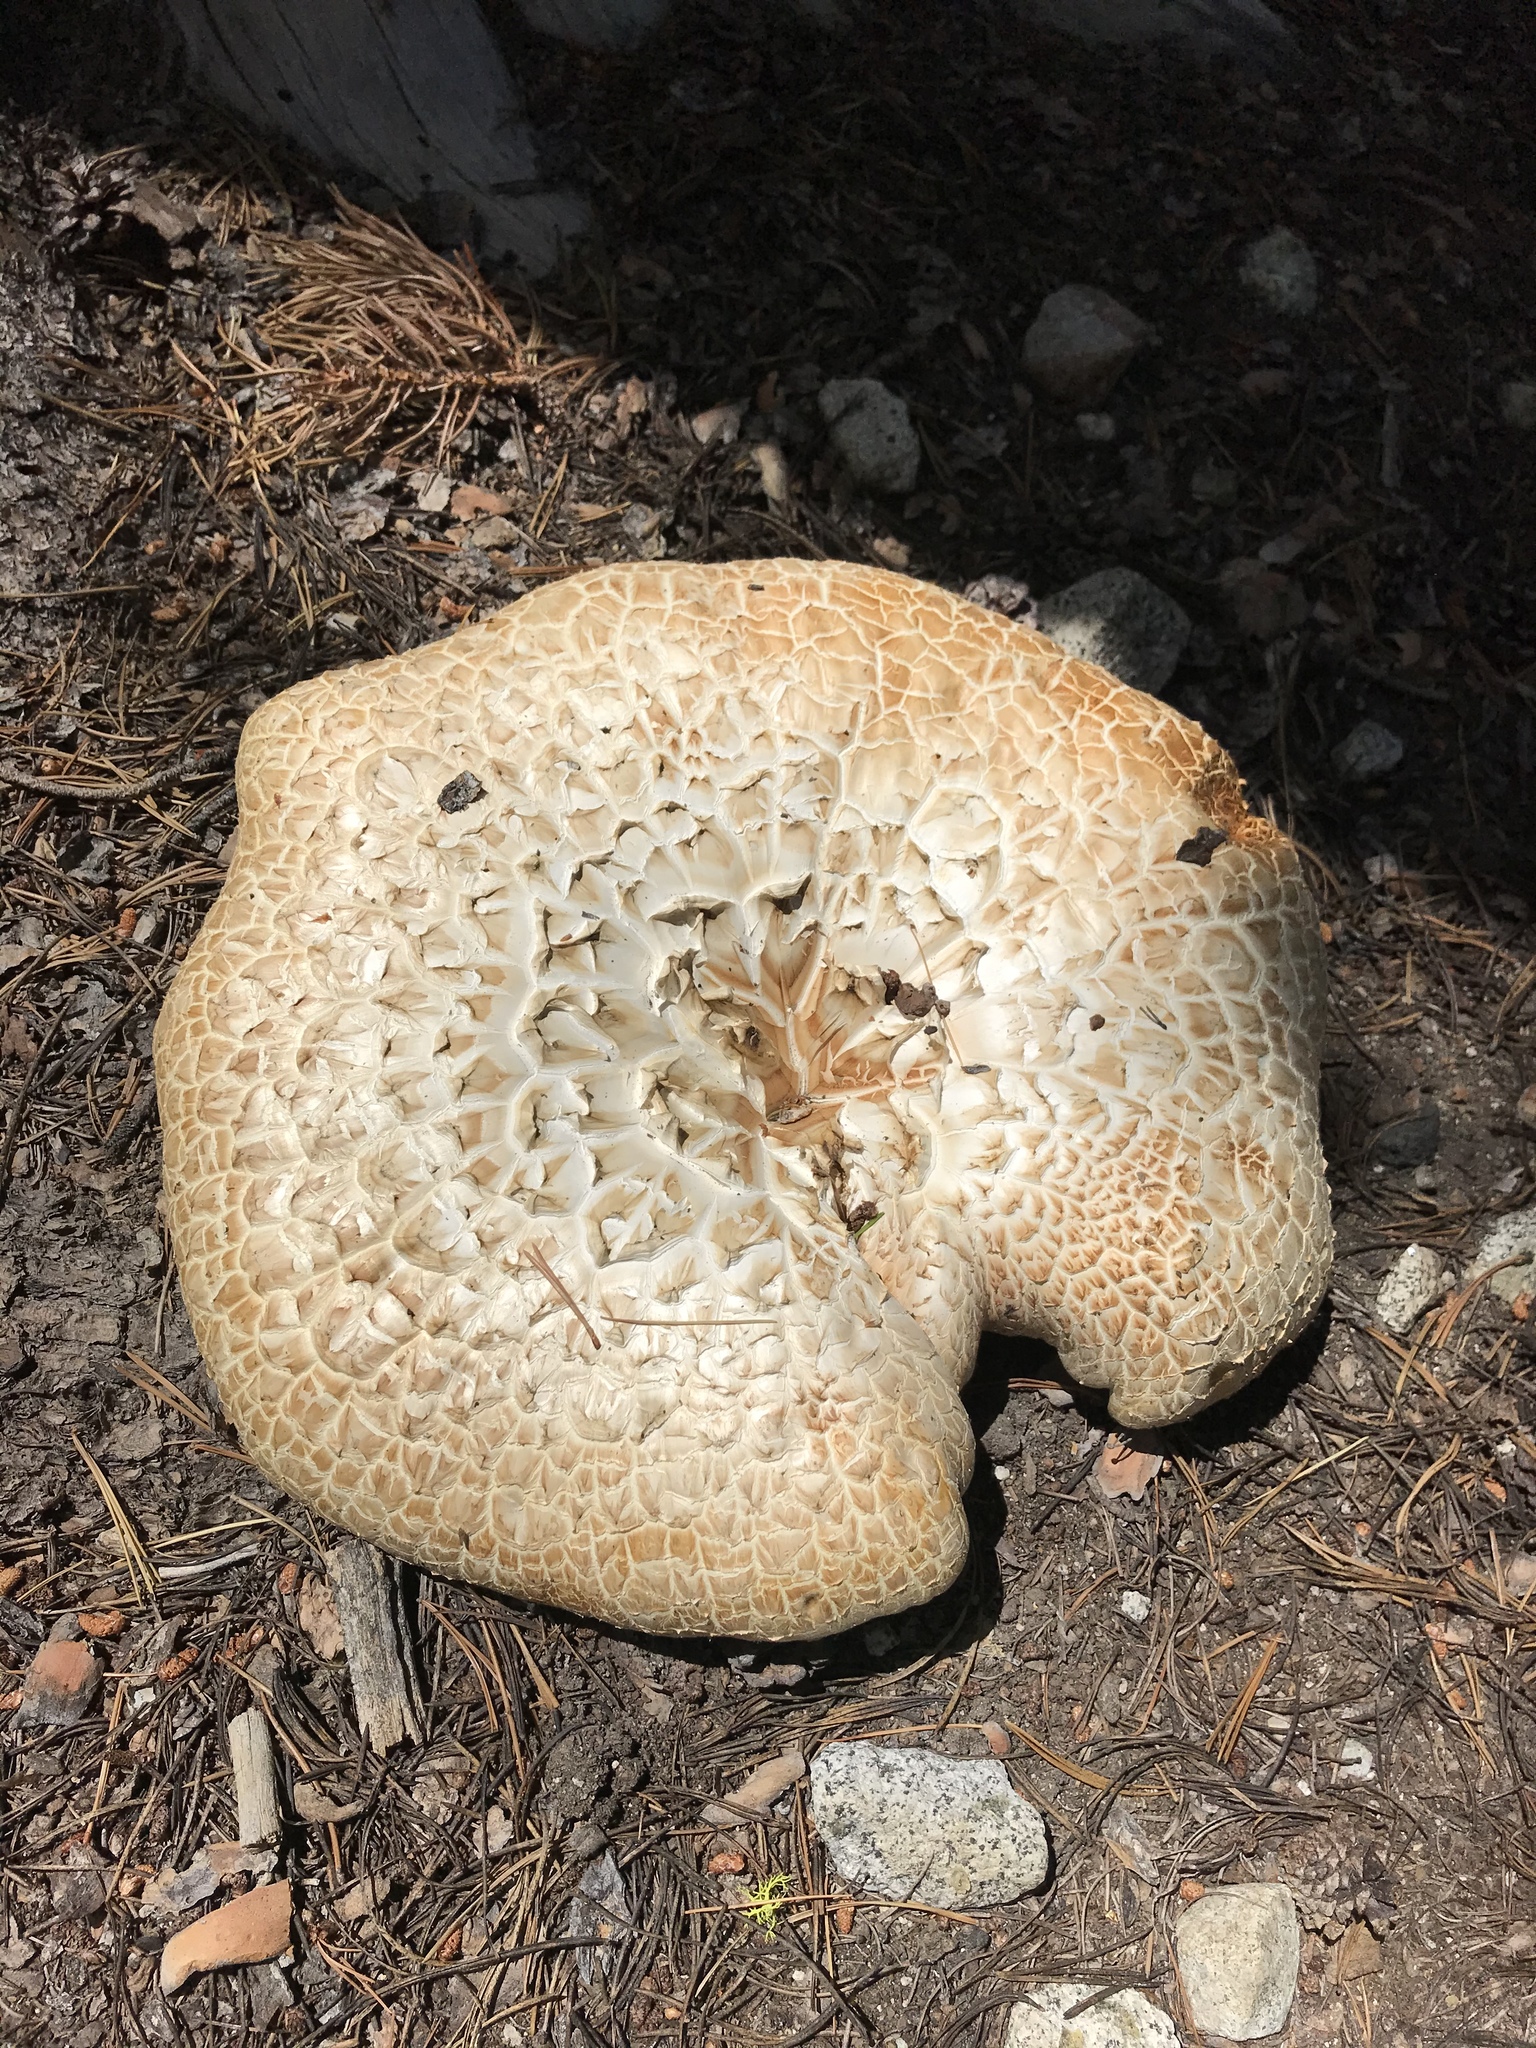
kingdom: Fungi
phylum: Basidiomycota
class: Agaricomycetes
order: Gloeophyllales
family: Gloeophyllaceae
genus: Neolentinus
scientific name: Neolentinus ponderosus
